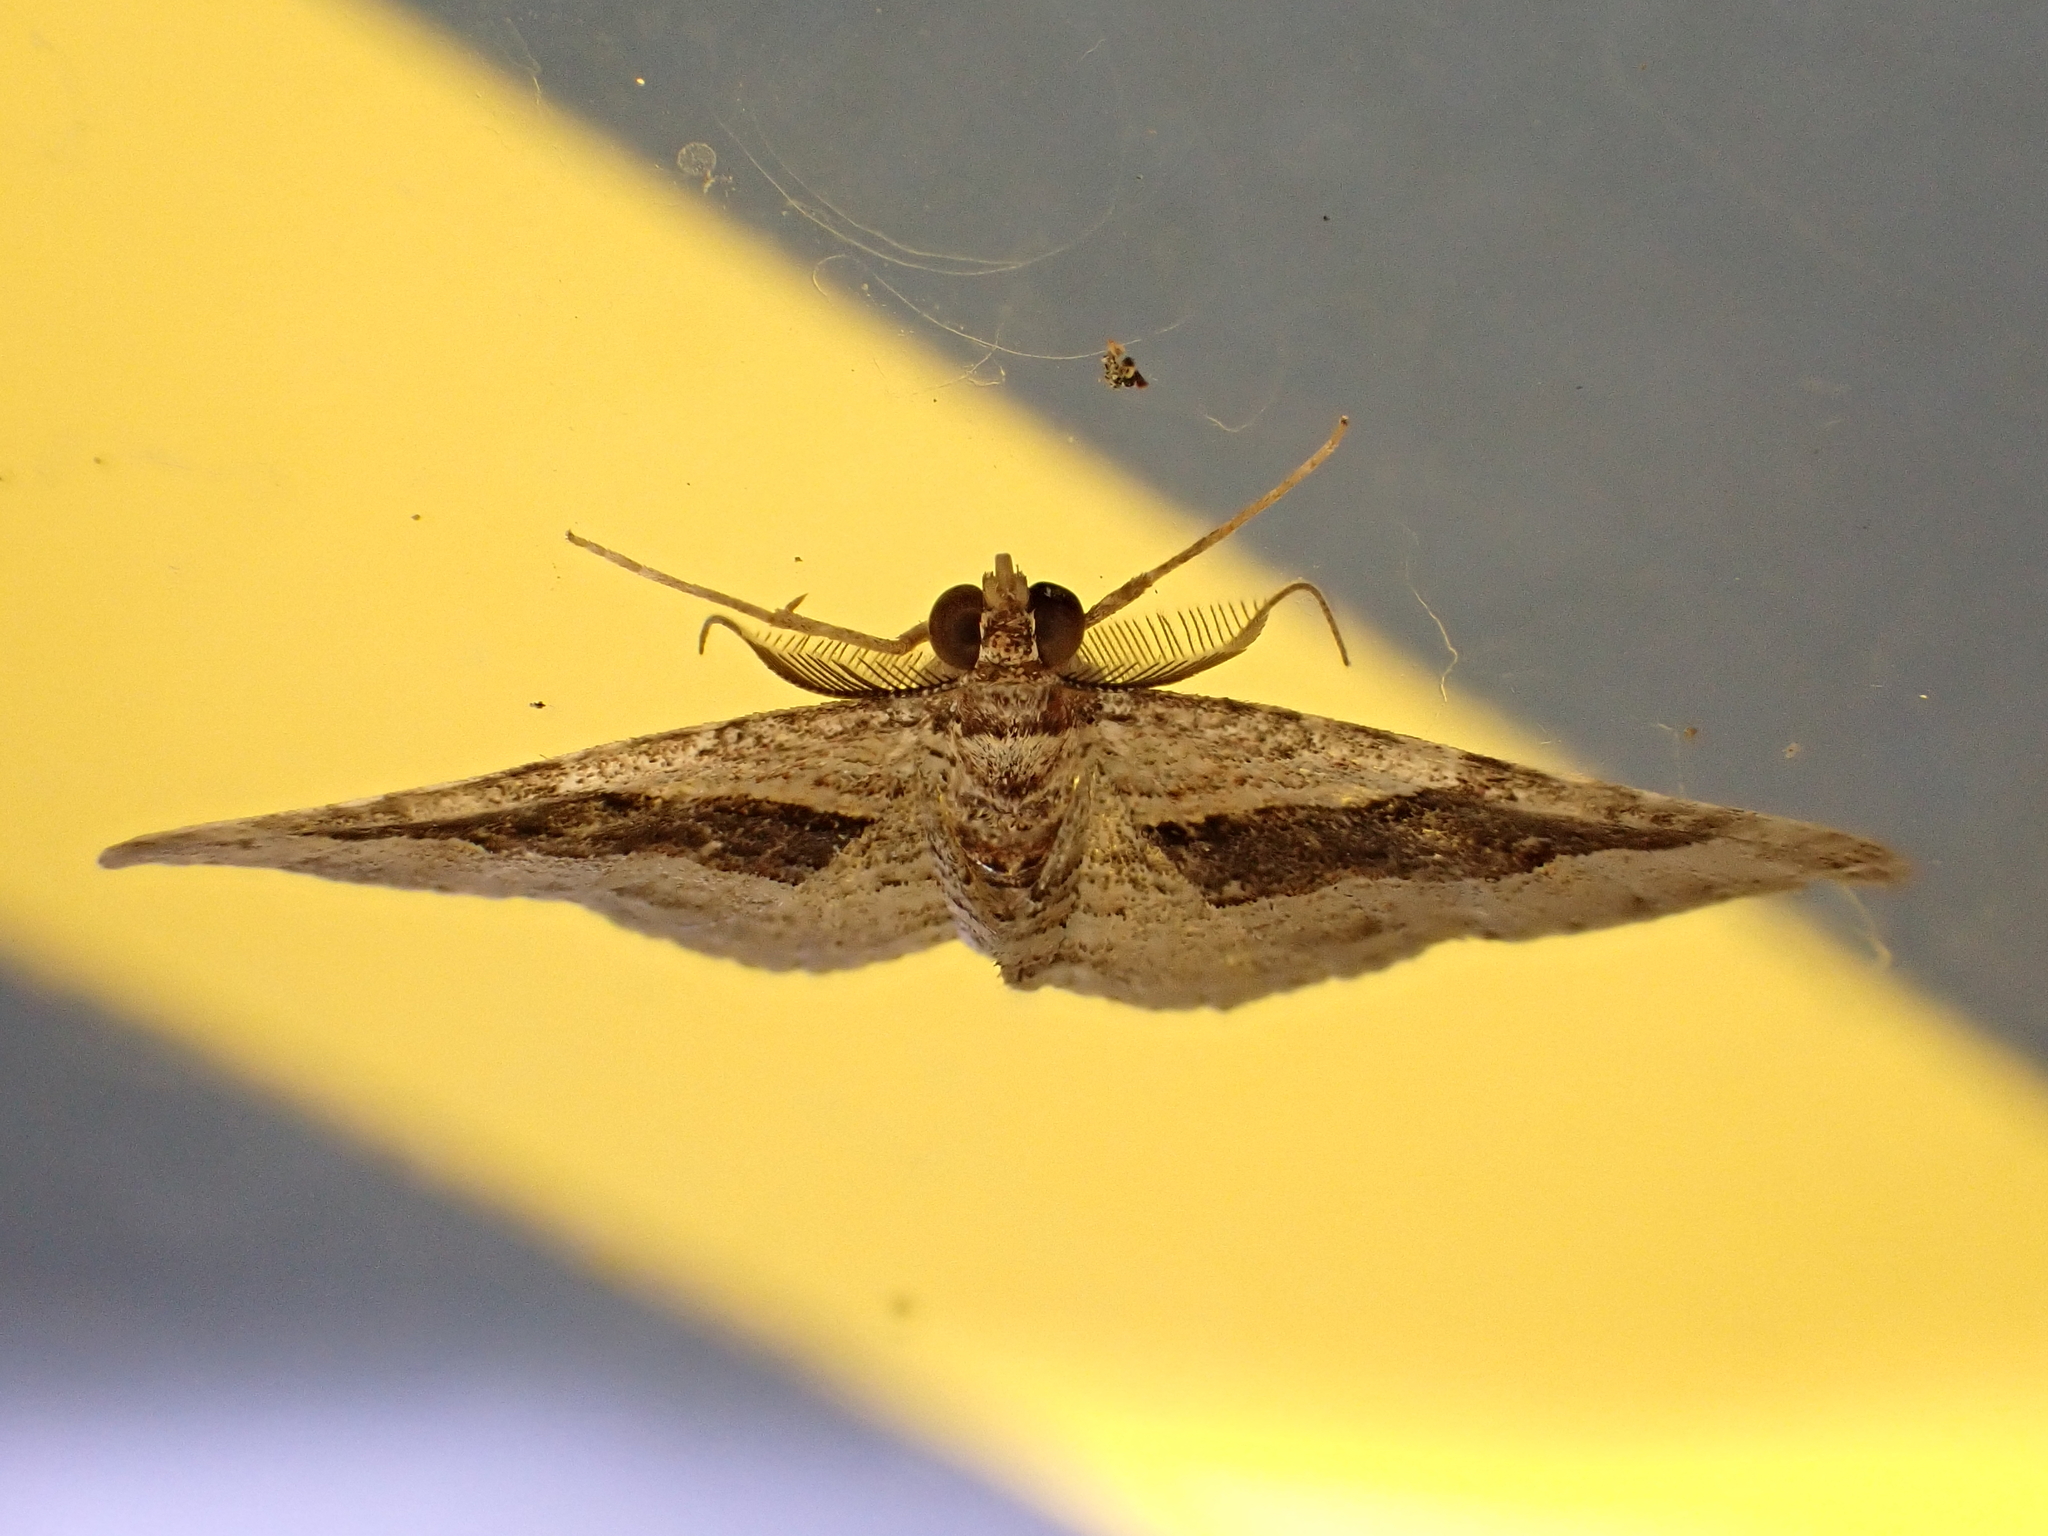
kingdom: Animalia
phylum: Arthropoda
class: Insecta
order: Lepidoptera
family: Geometridae
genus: Epyaxa
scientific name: Epyaxa lucidata
